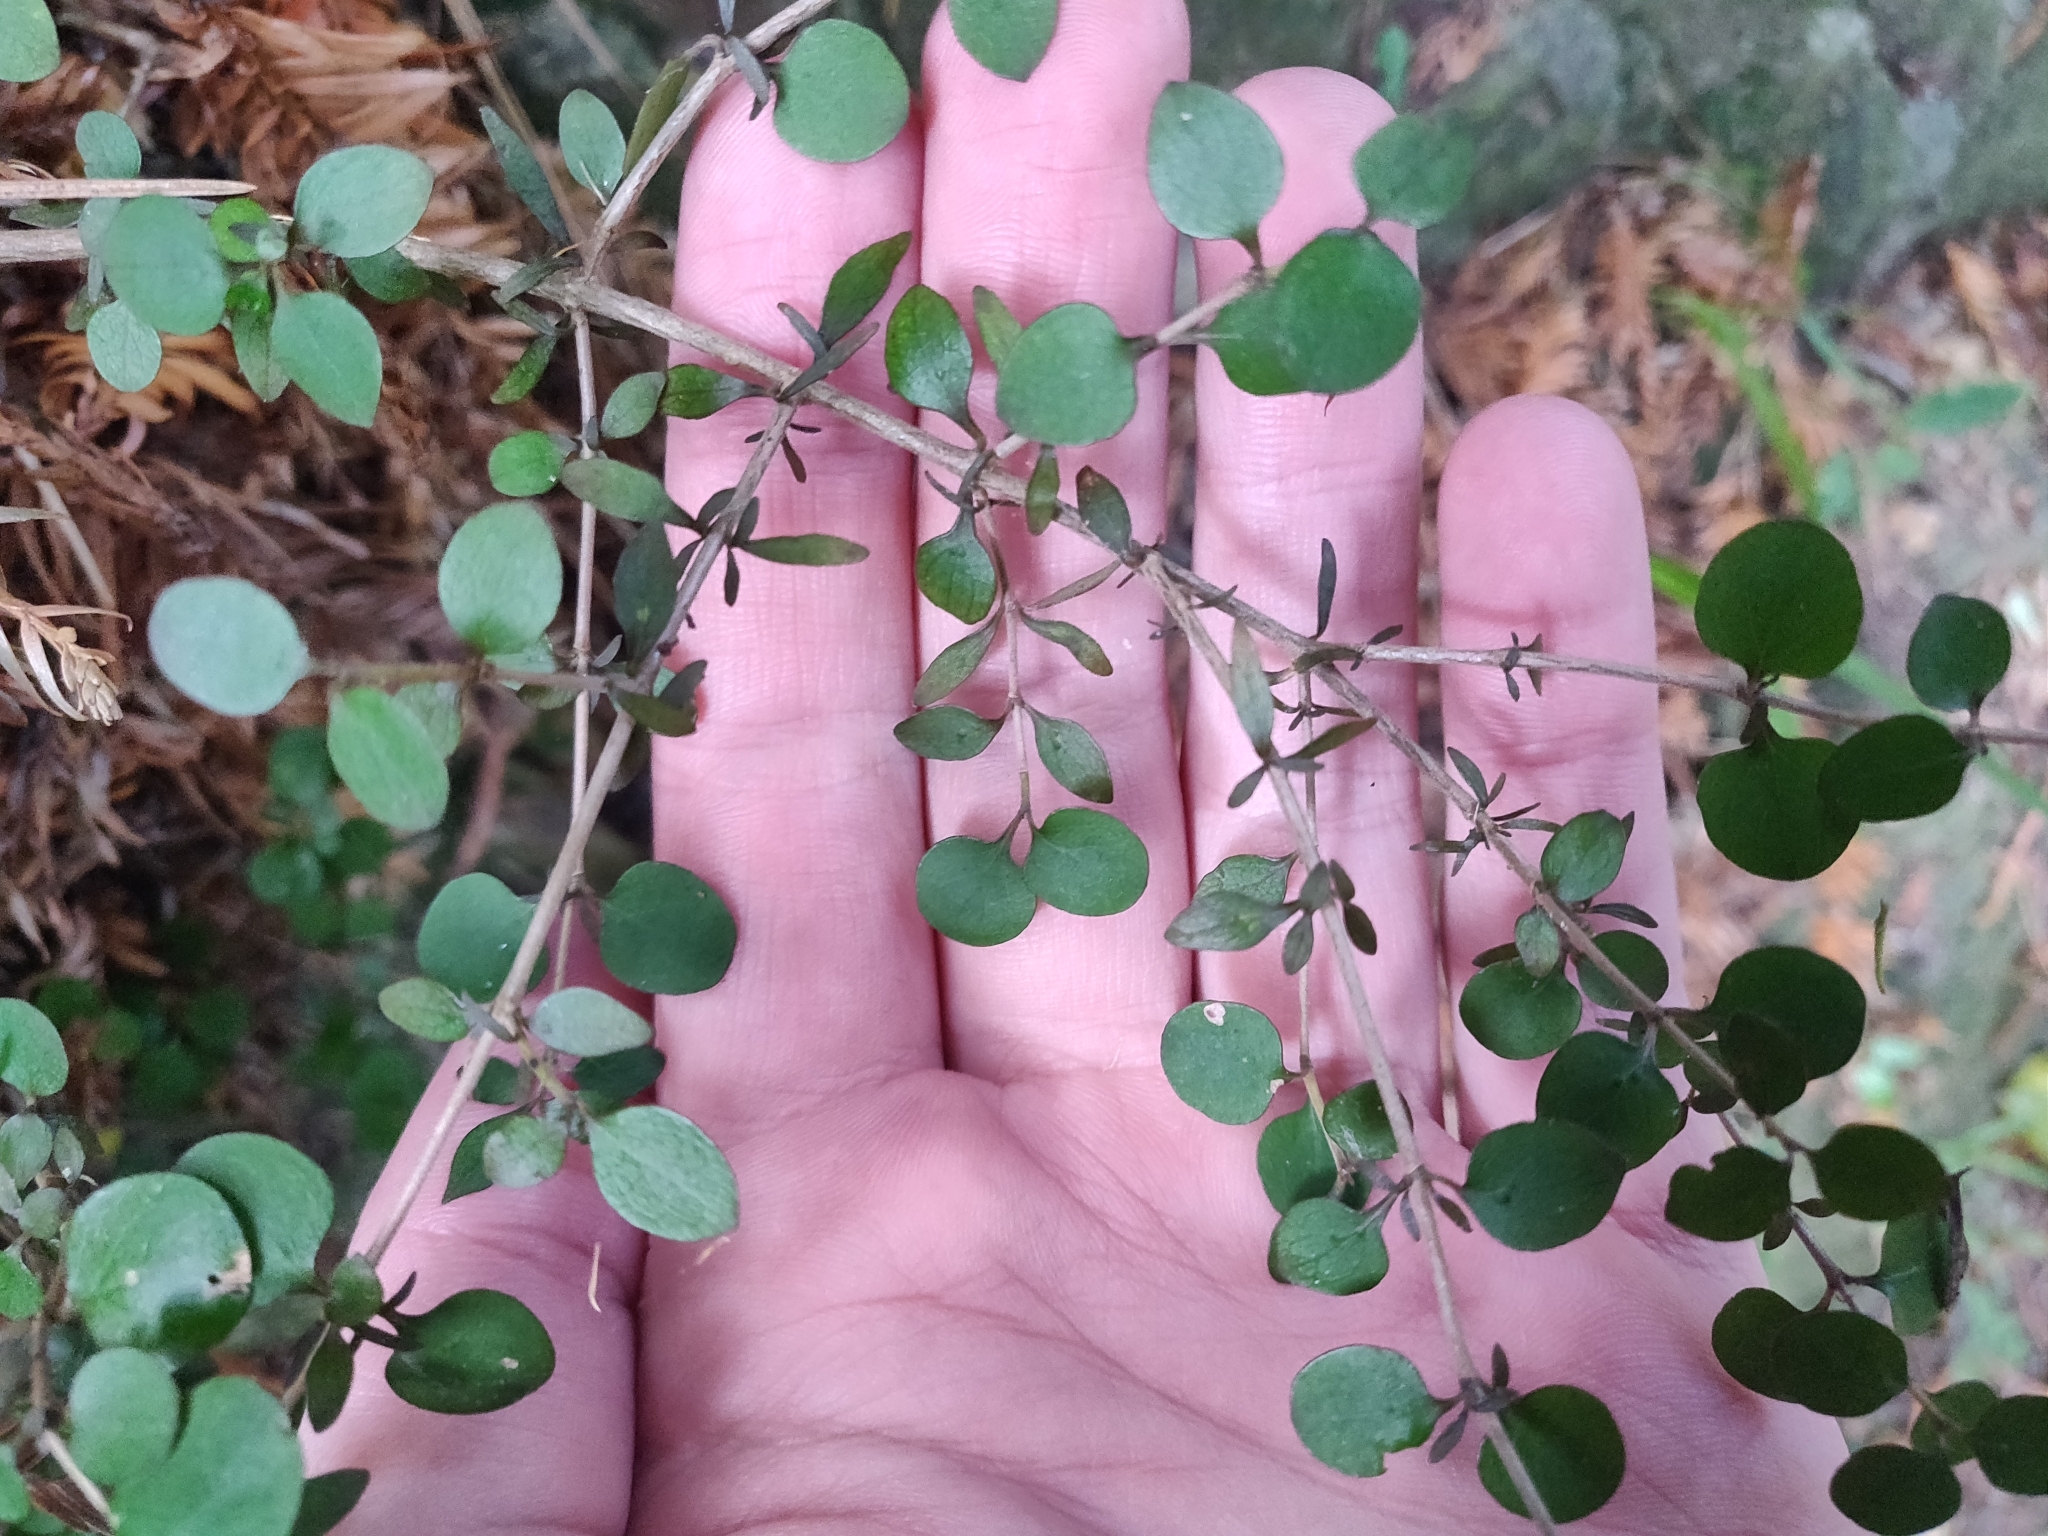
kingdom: Plantae
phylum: Tracheophyta
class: Magnoliopsida
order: Gentianales
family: Rubiaceae
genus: Coprosma
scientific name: Coprosma rhamnoides
